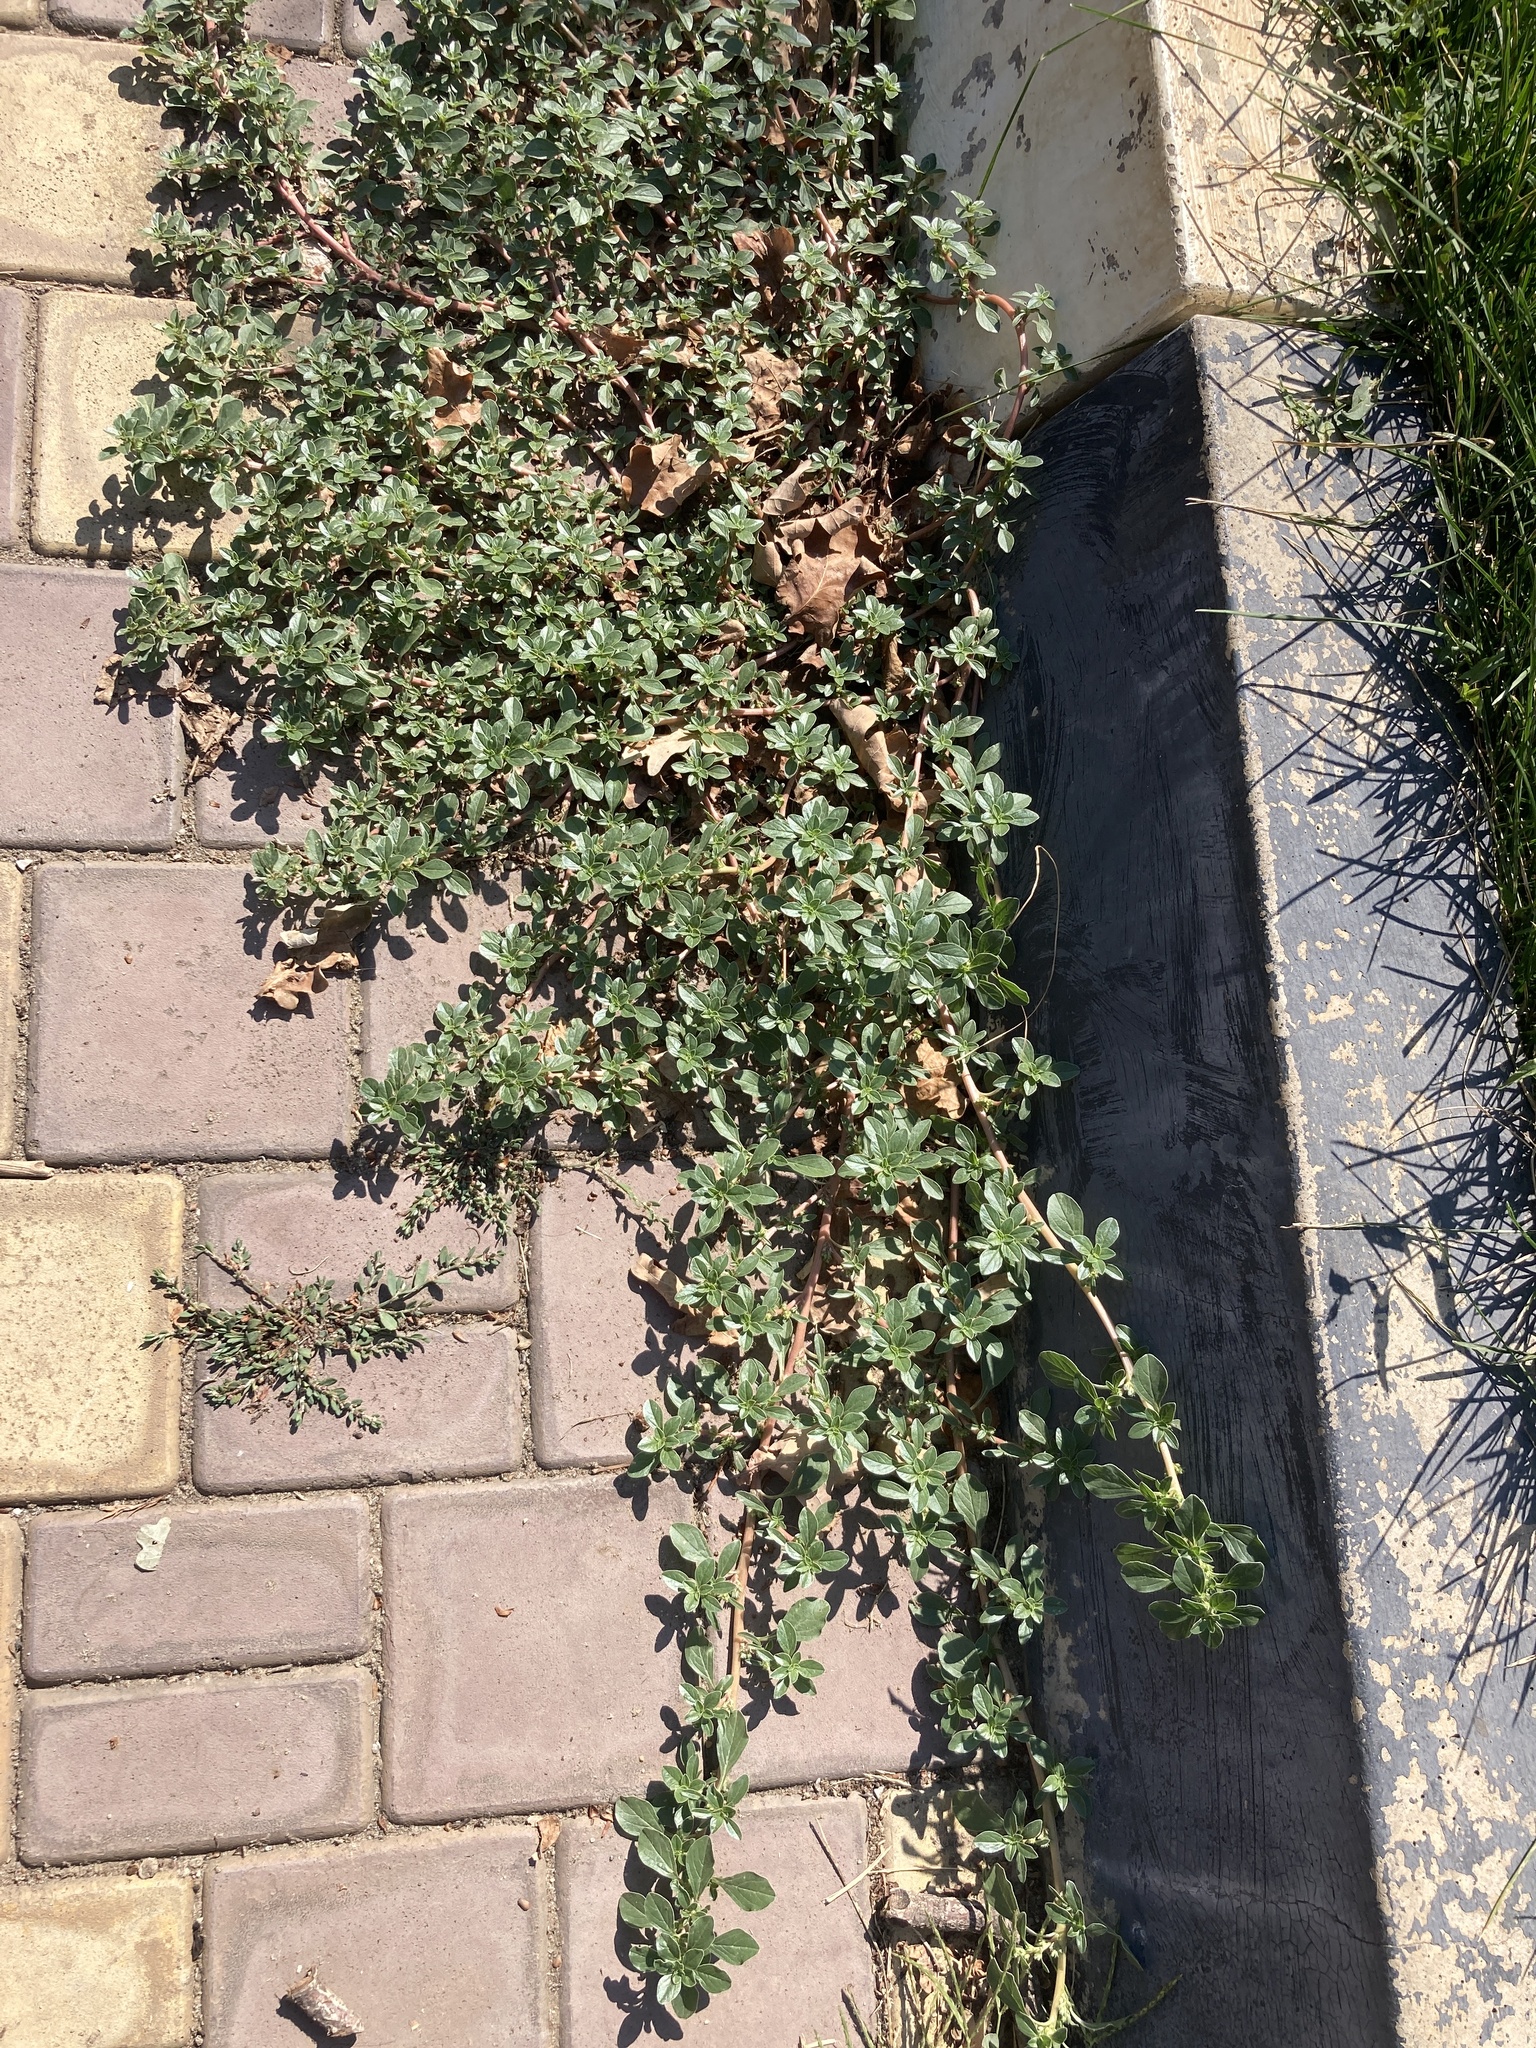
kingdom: Plantae
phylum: Tracheophyta
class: Magnoliopsida
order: Caryophyllales
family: Amaranthaceae
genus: Amaranthus
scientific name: Amaranthus blitoides
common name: Prostrate pigweed
